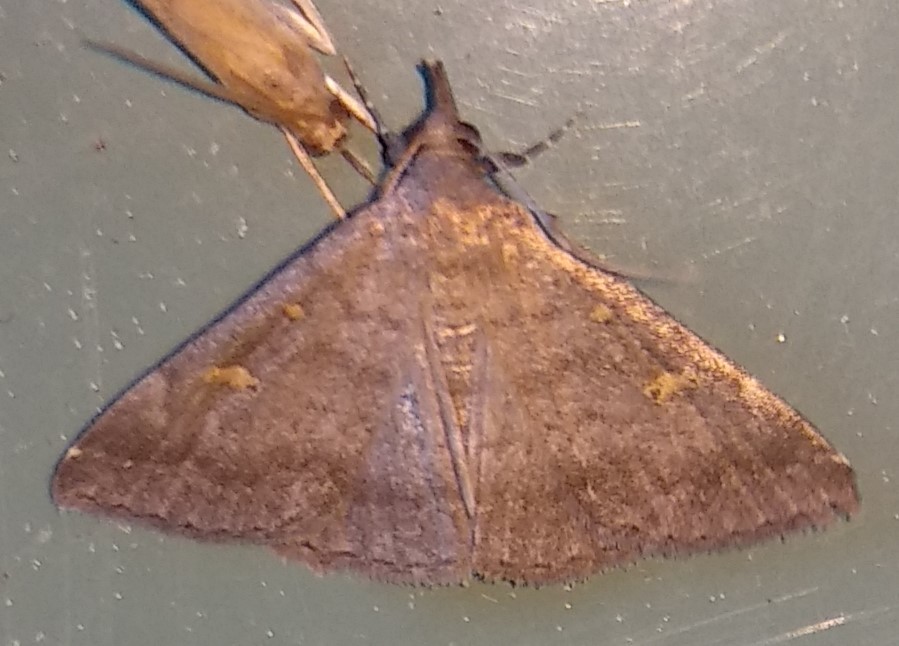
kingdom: Animalia
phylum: Arthropoda
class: Insecta
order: Lepidoptera
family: Erebidae
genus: Renia
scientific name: Renia sobrialis
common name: Sober renia moth
